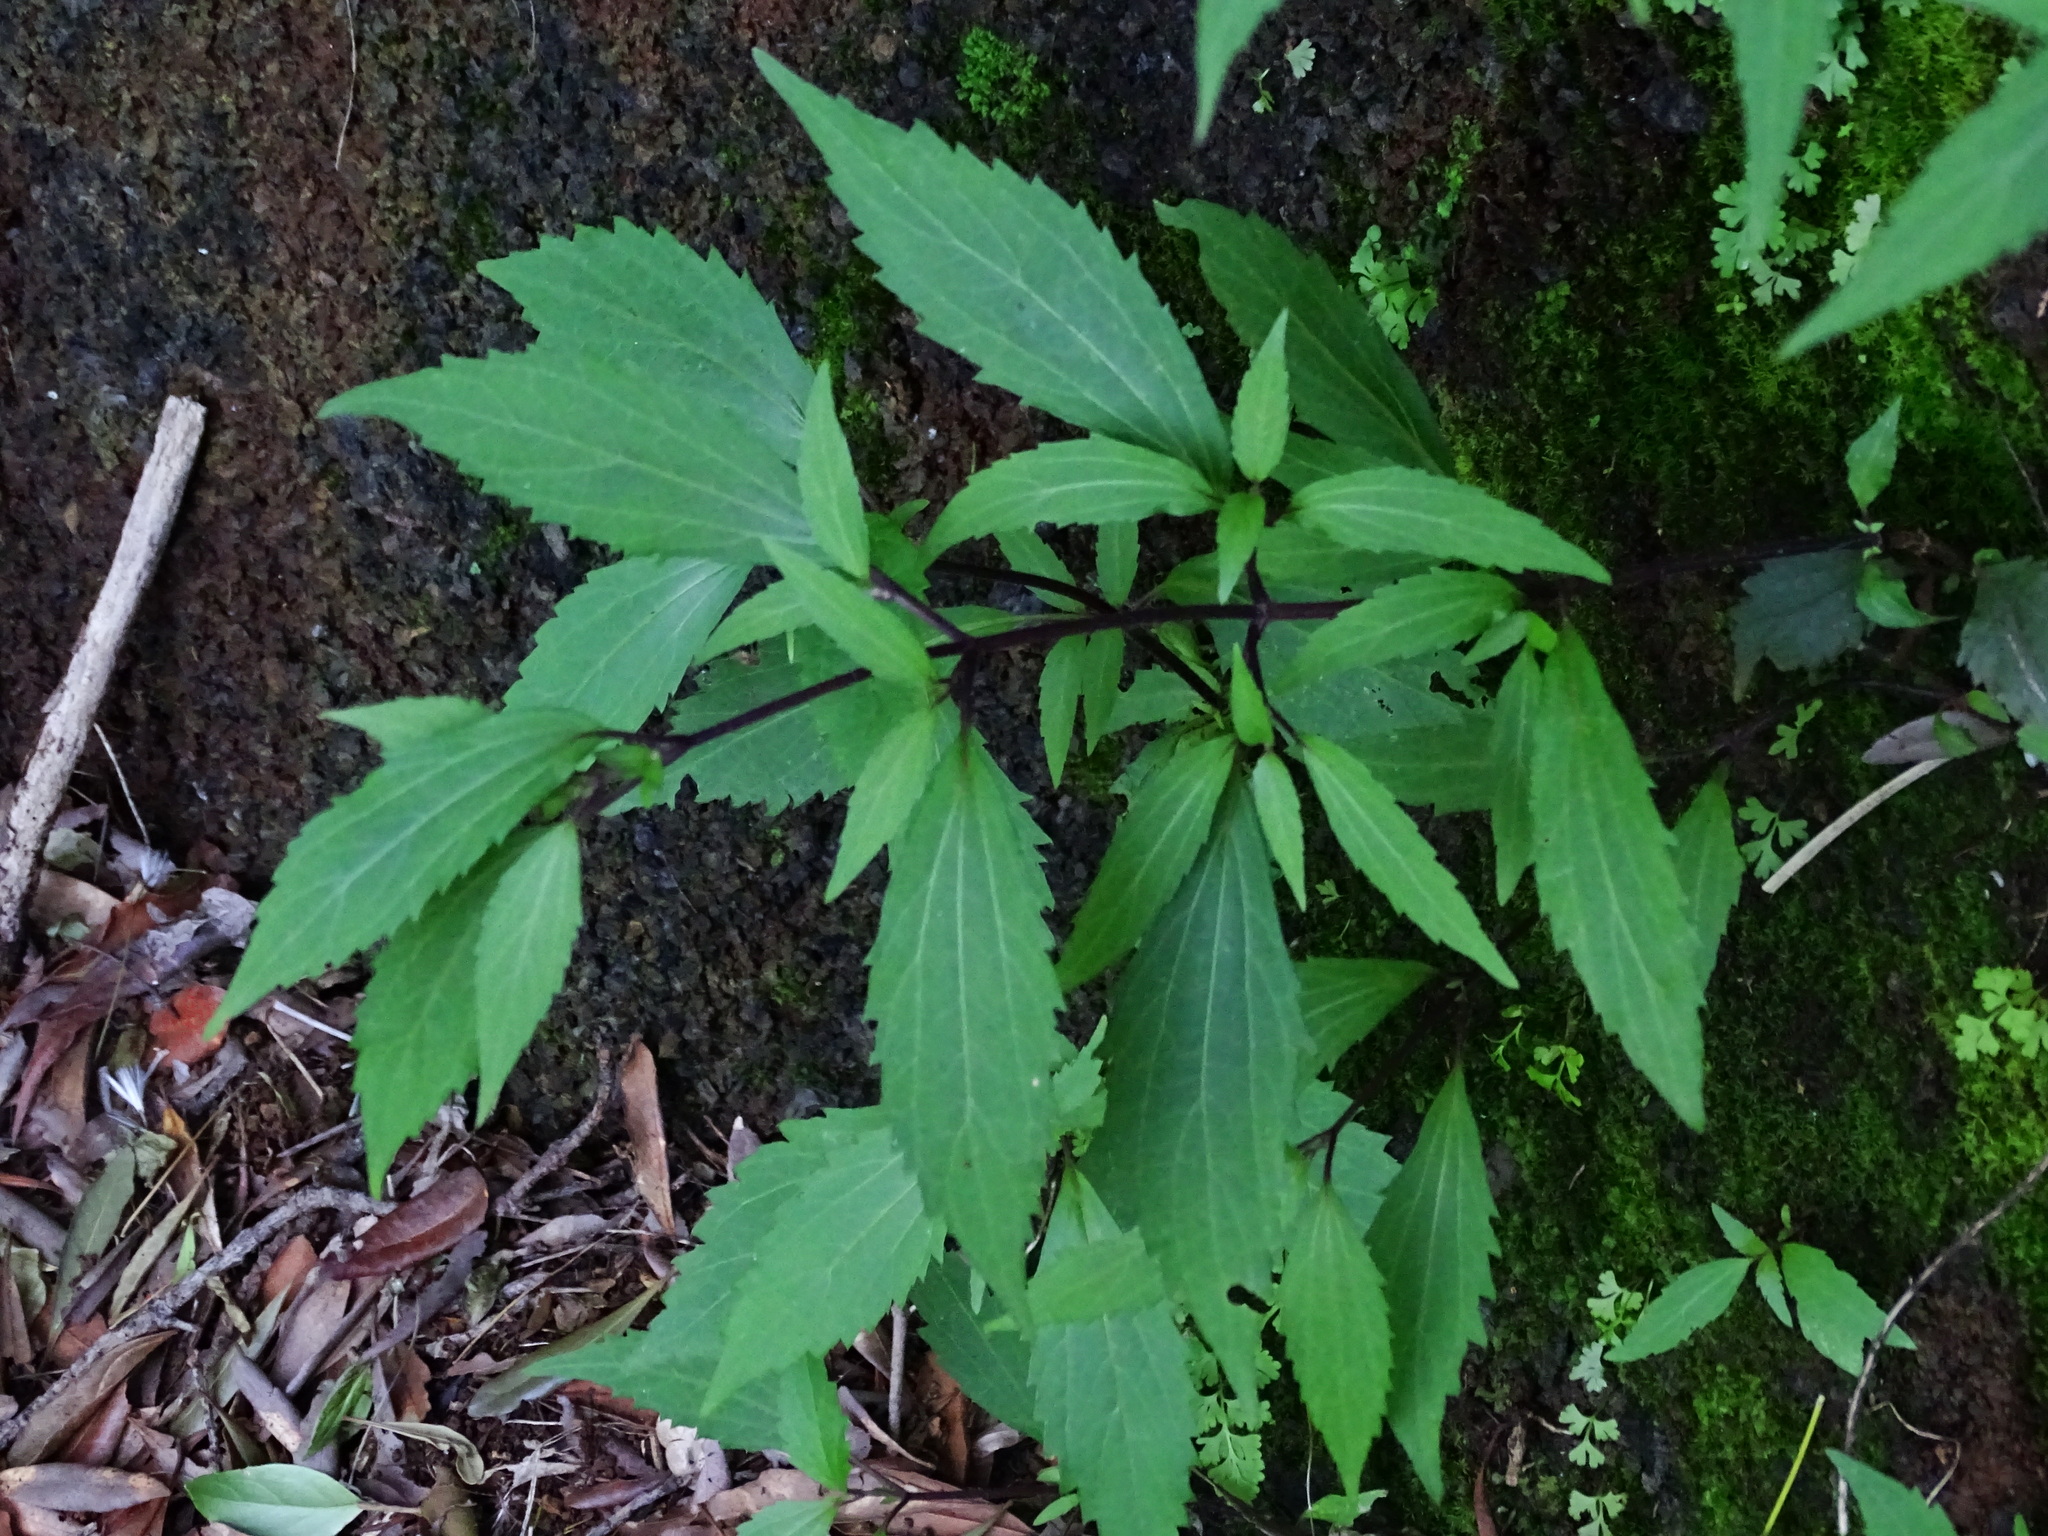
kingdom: Plantae
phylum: Tracheophyta
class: Magnoliopsida
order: Asterales
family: Asteraceae
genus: Ageratina
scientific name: Ageratina riparia
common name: Creeping croftonweed
